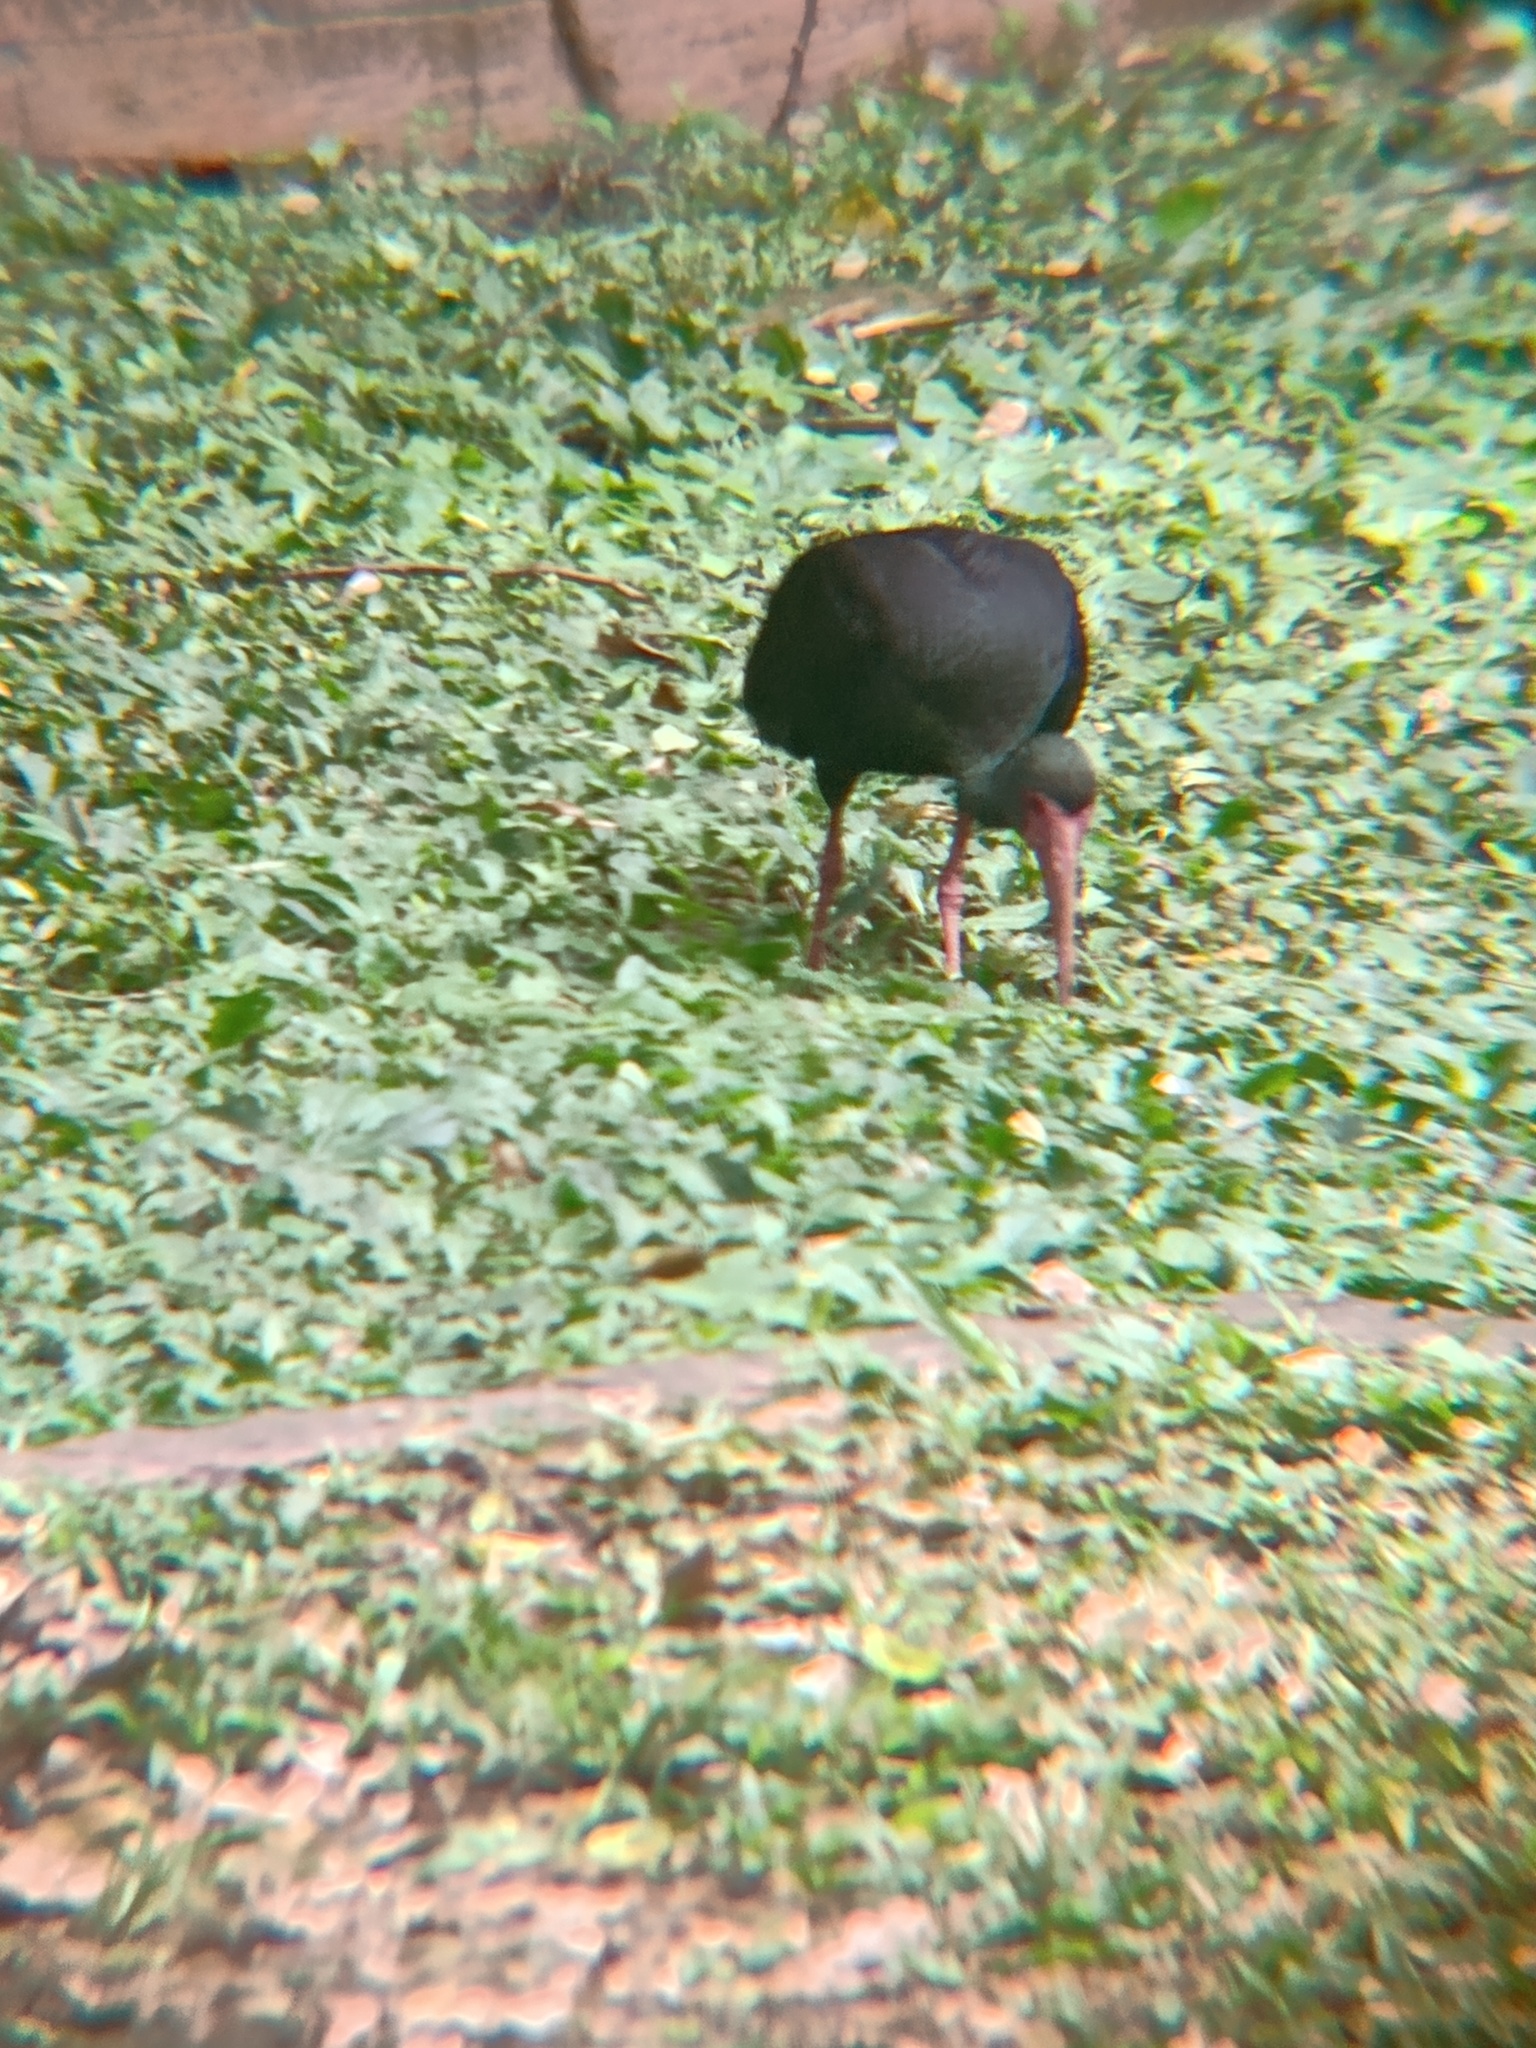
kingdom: Animalia
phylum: Chordata
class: Aves
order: Pelecaniformes
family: Threskiornithidae
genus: Phimosus
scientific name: Phimosus infuscatus
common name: Bare-faced ibis
